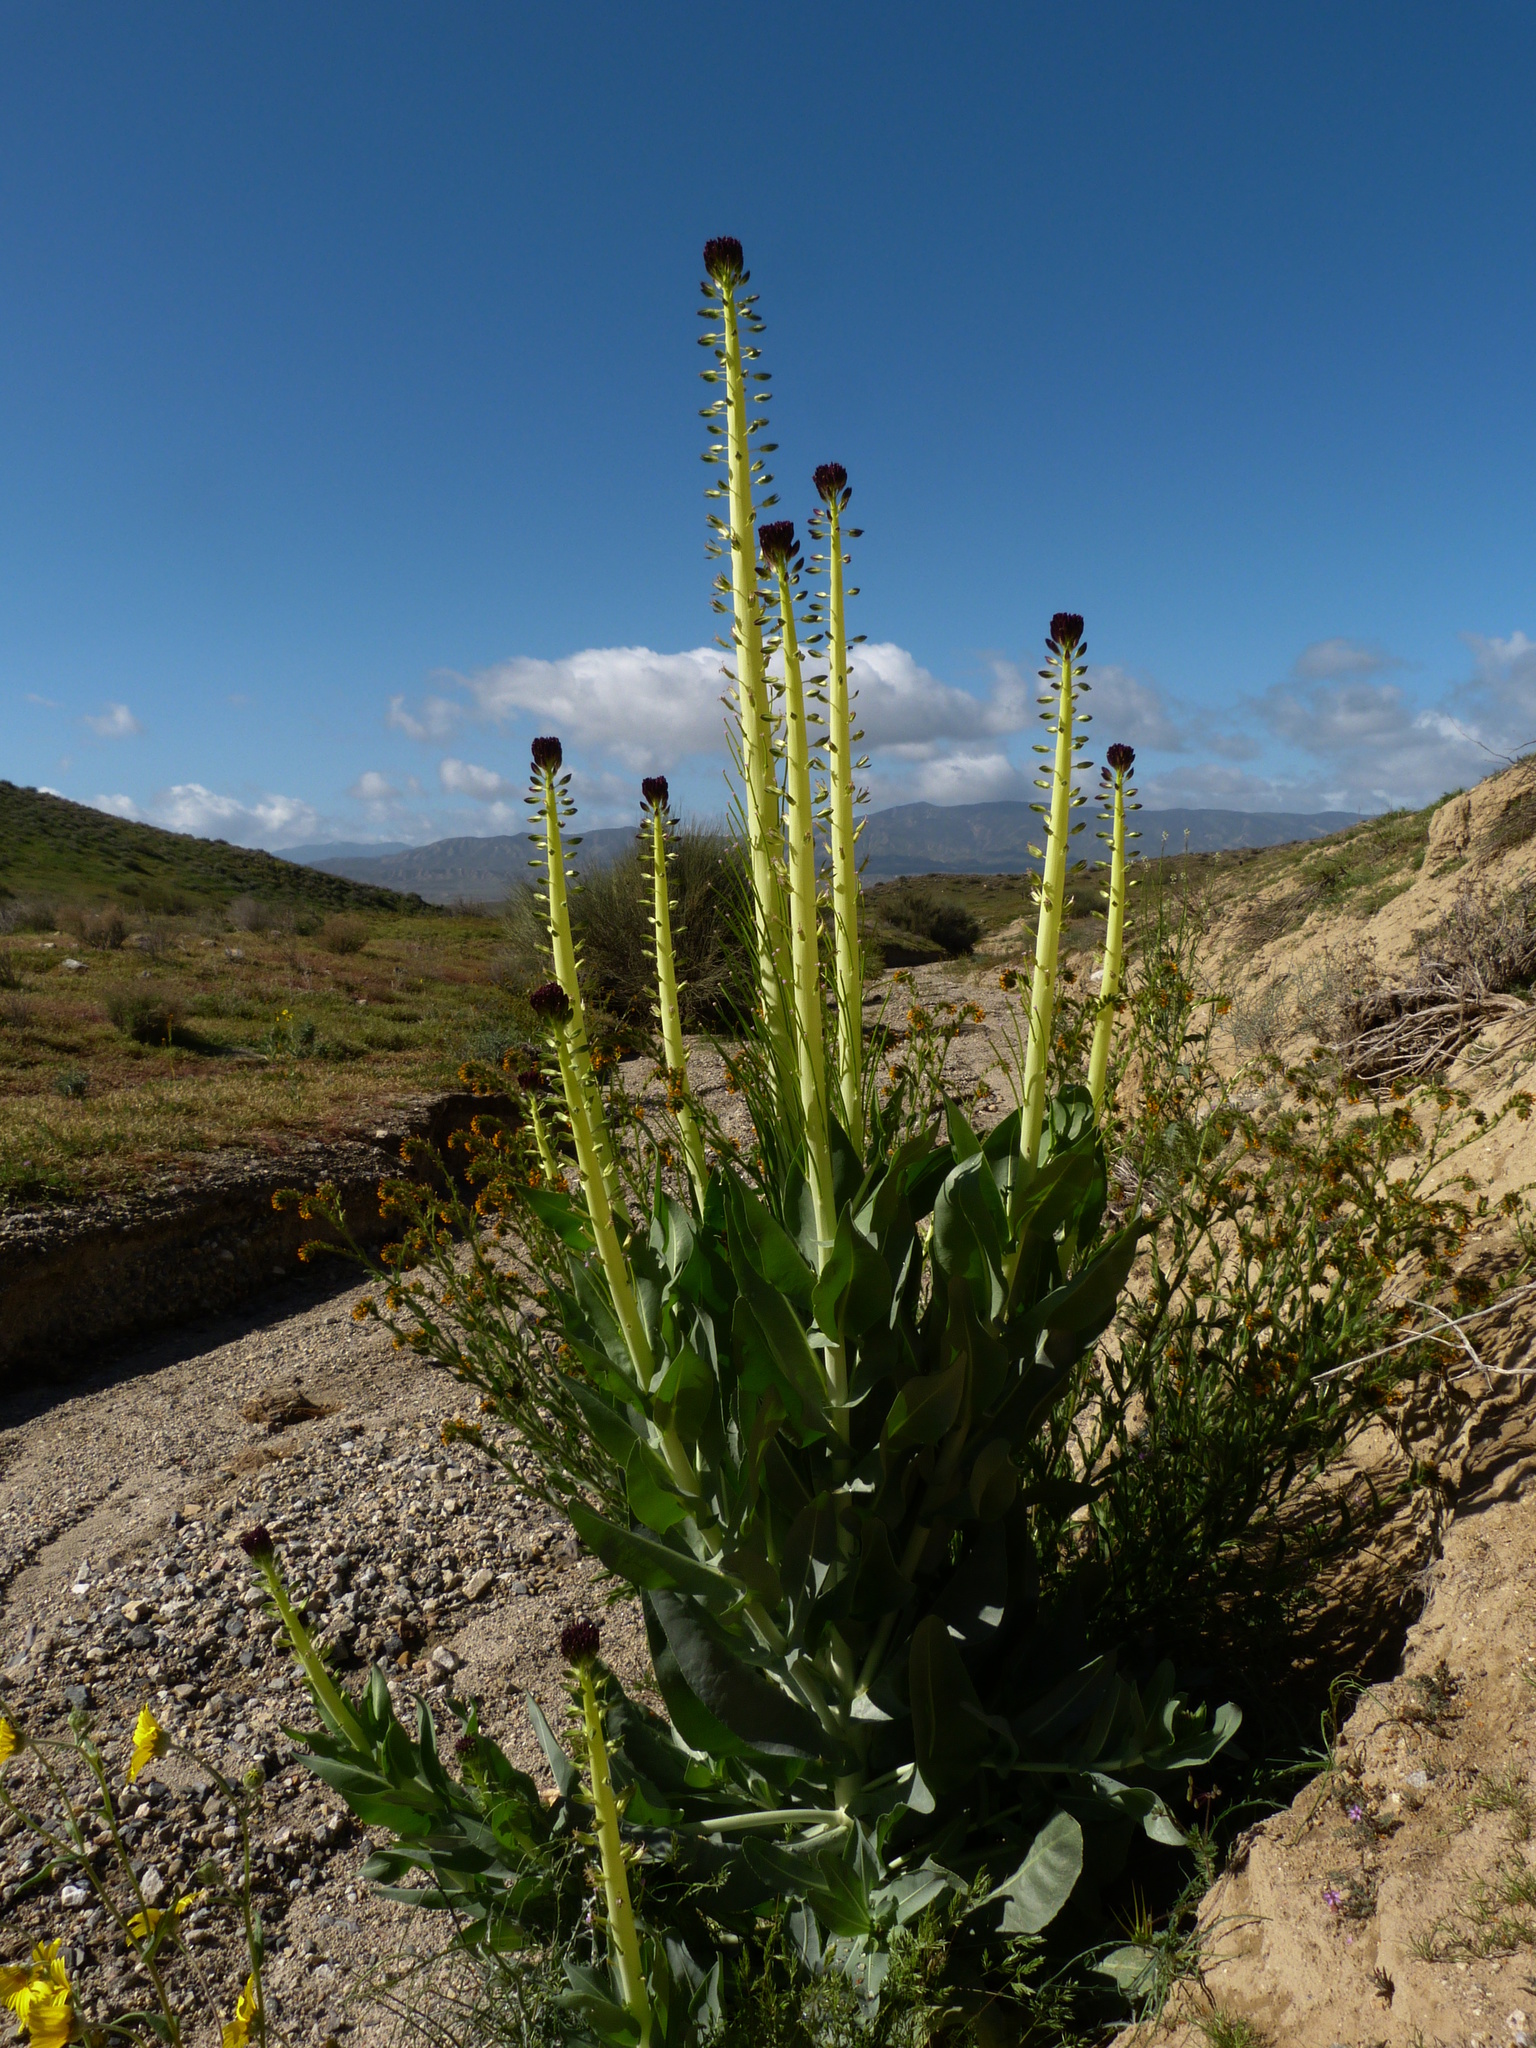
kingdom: Plantae
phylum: Tracheophyta
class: Magnoliopsida
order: Brassicales
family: Brassicaceae
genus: Streptanthus
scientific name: Streptanthus inflatus
